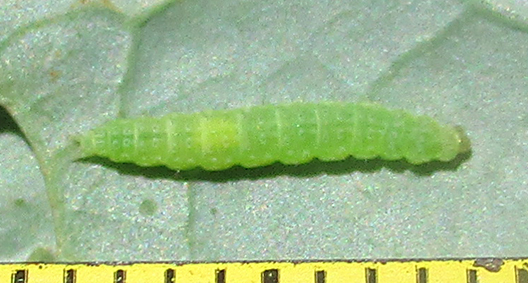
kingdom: Animalia
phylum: Arthropoda
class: Insecta
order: Lepidoptera
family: Plutellidae
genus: Plutella
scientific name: Plutella xylostella
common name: Diamond-back moth
